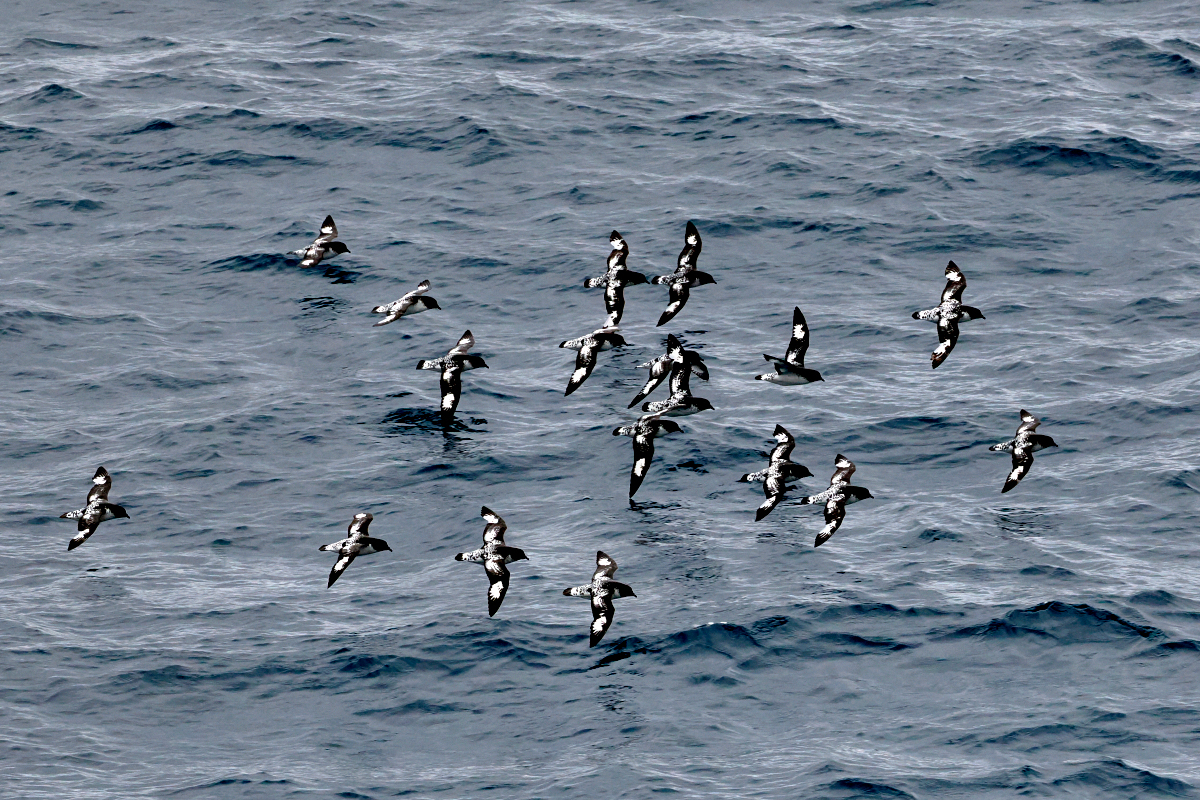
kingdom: Animalia
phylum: Chordata
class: Aves
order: Procellariiformes
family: Procellariidae
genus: Daption
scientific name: Daption capense
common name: Cape petrel
